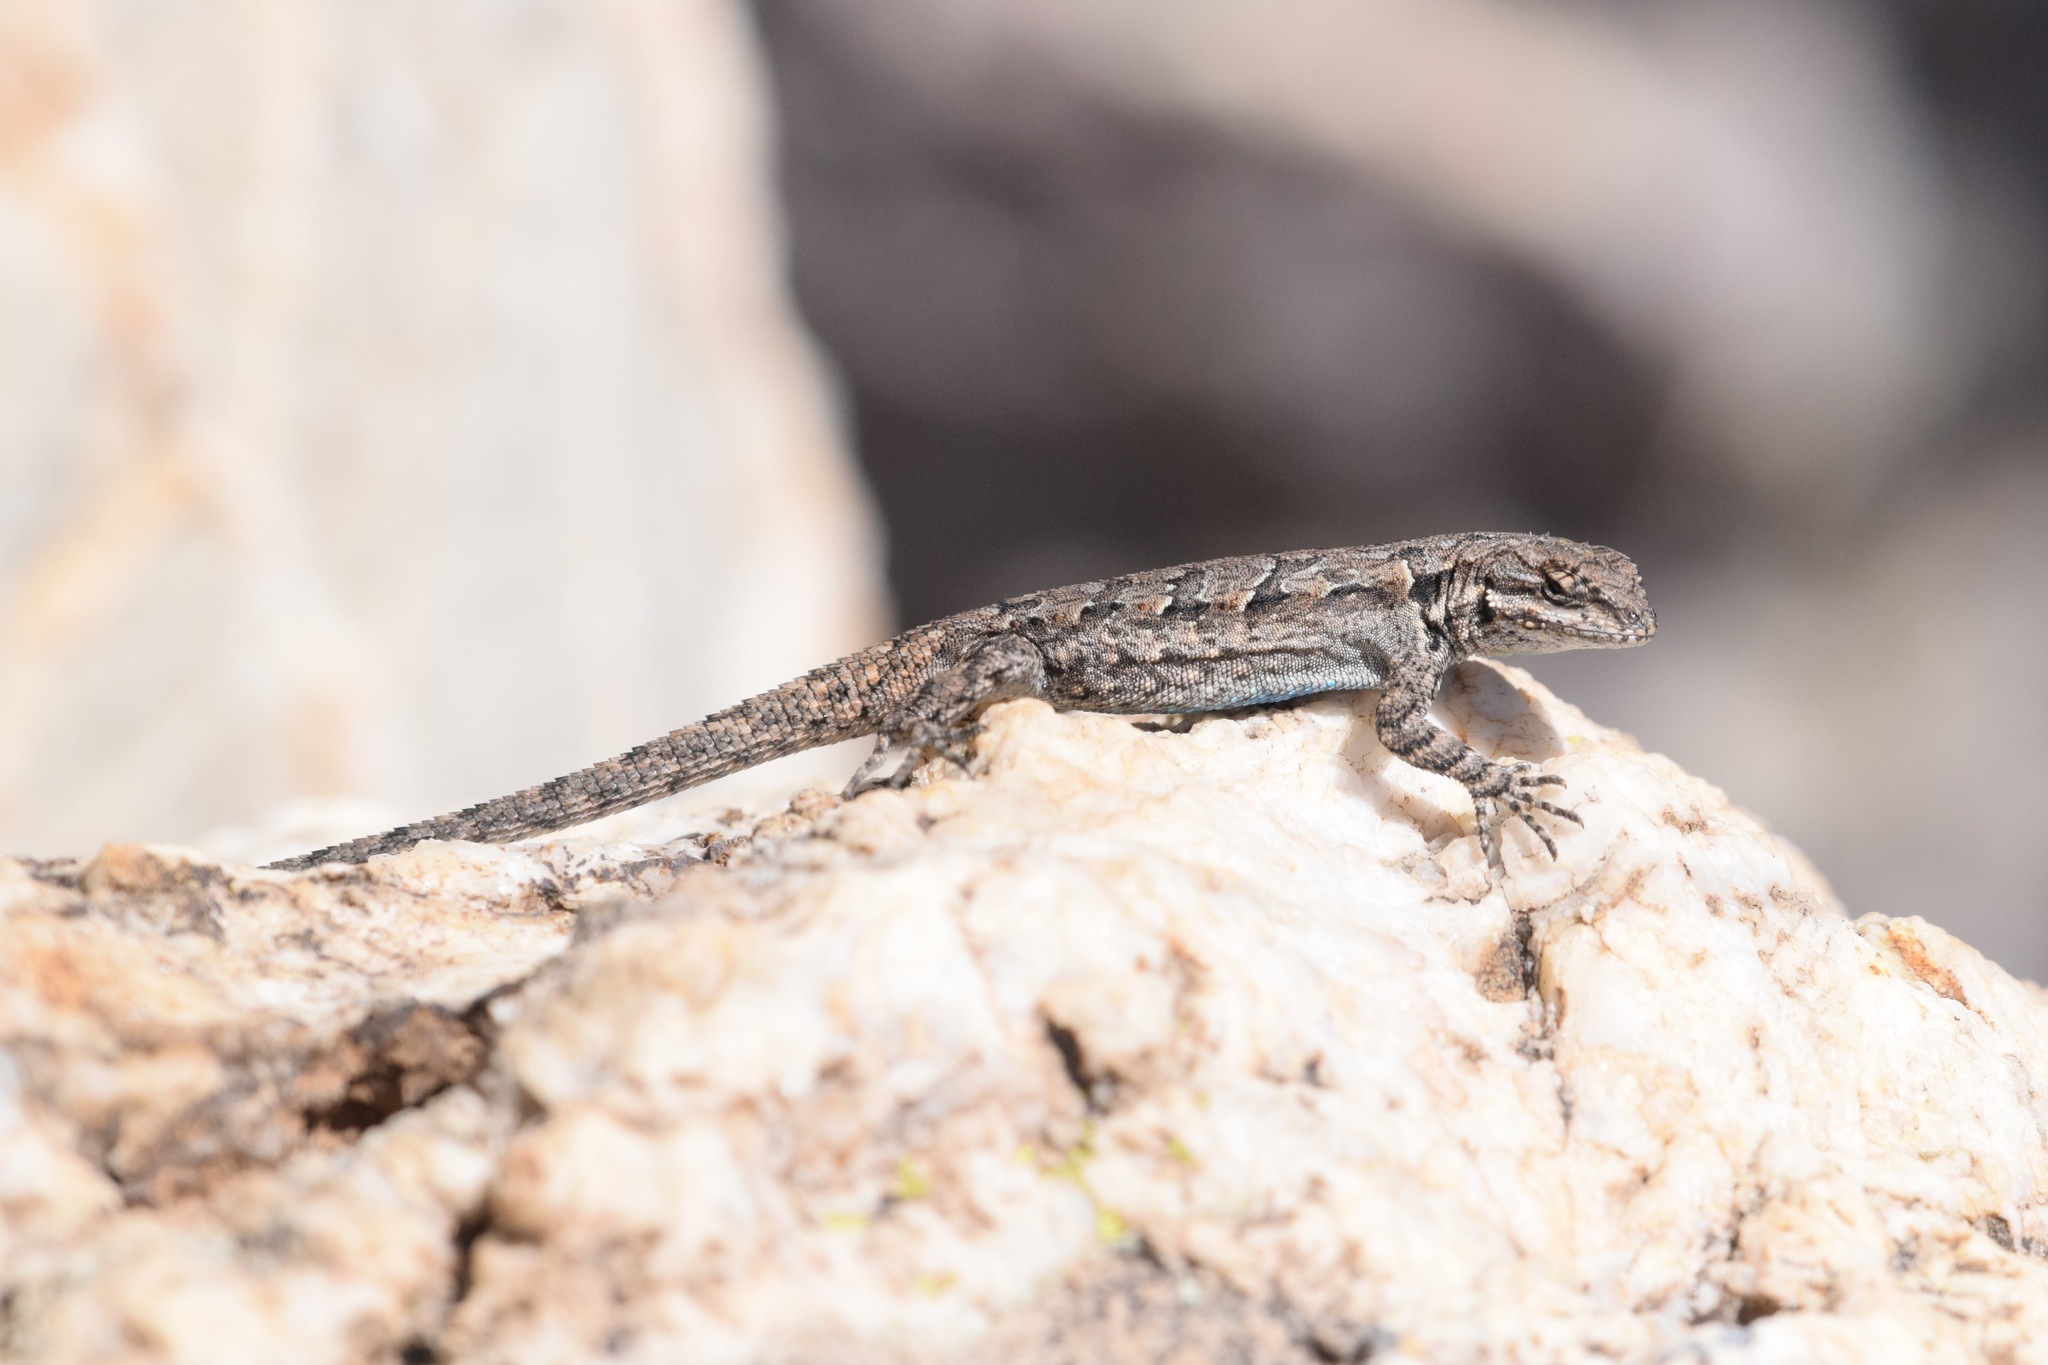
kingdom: Animalia
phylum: Chordata
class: Squamata
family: Phrynosomatidae
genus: Urosaurus
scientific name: Urosaurus ornatus
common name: Ornate tree lizard
